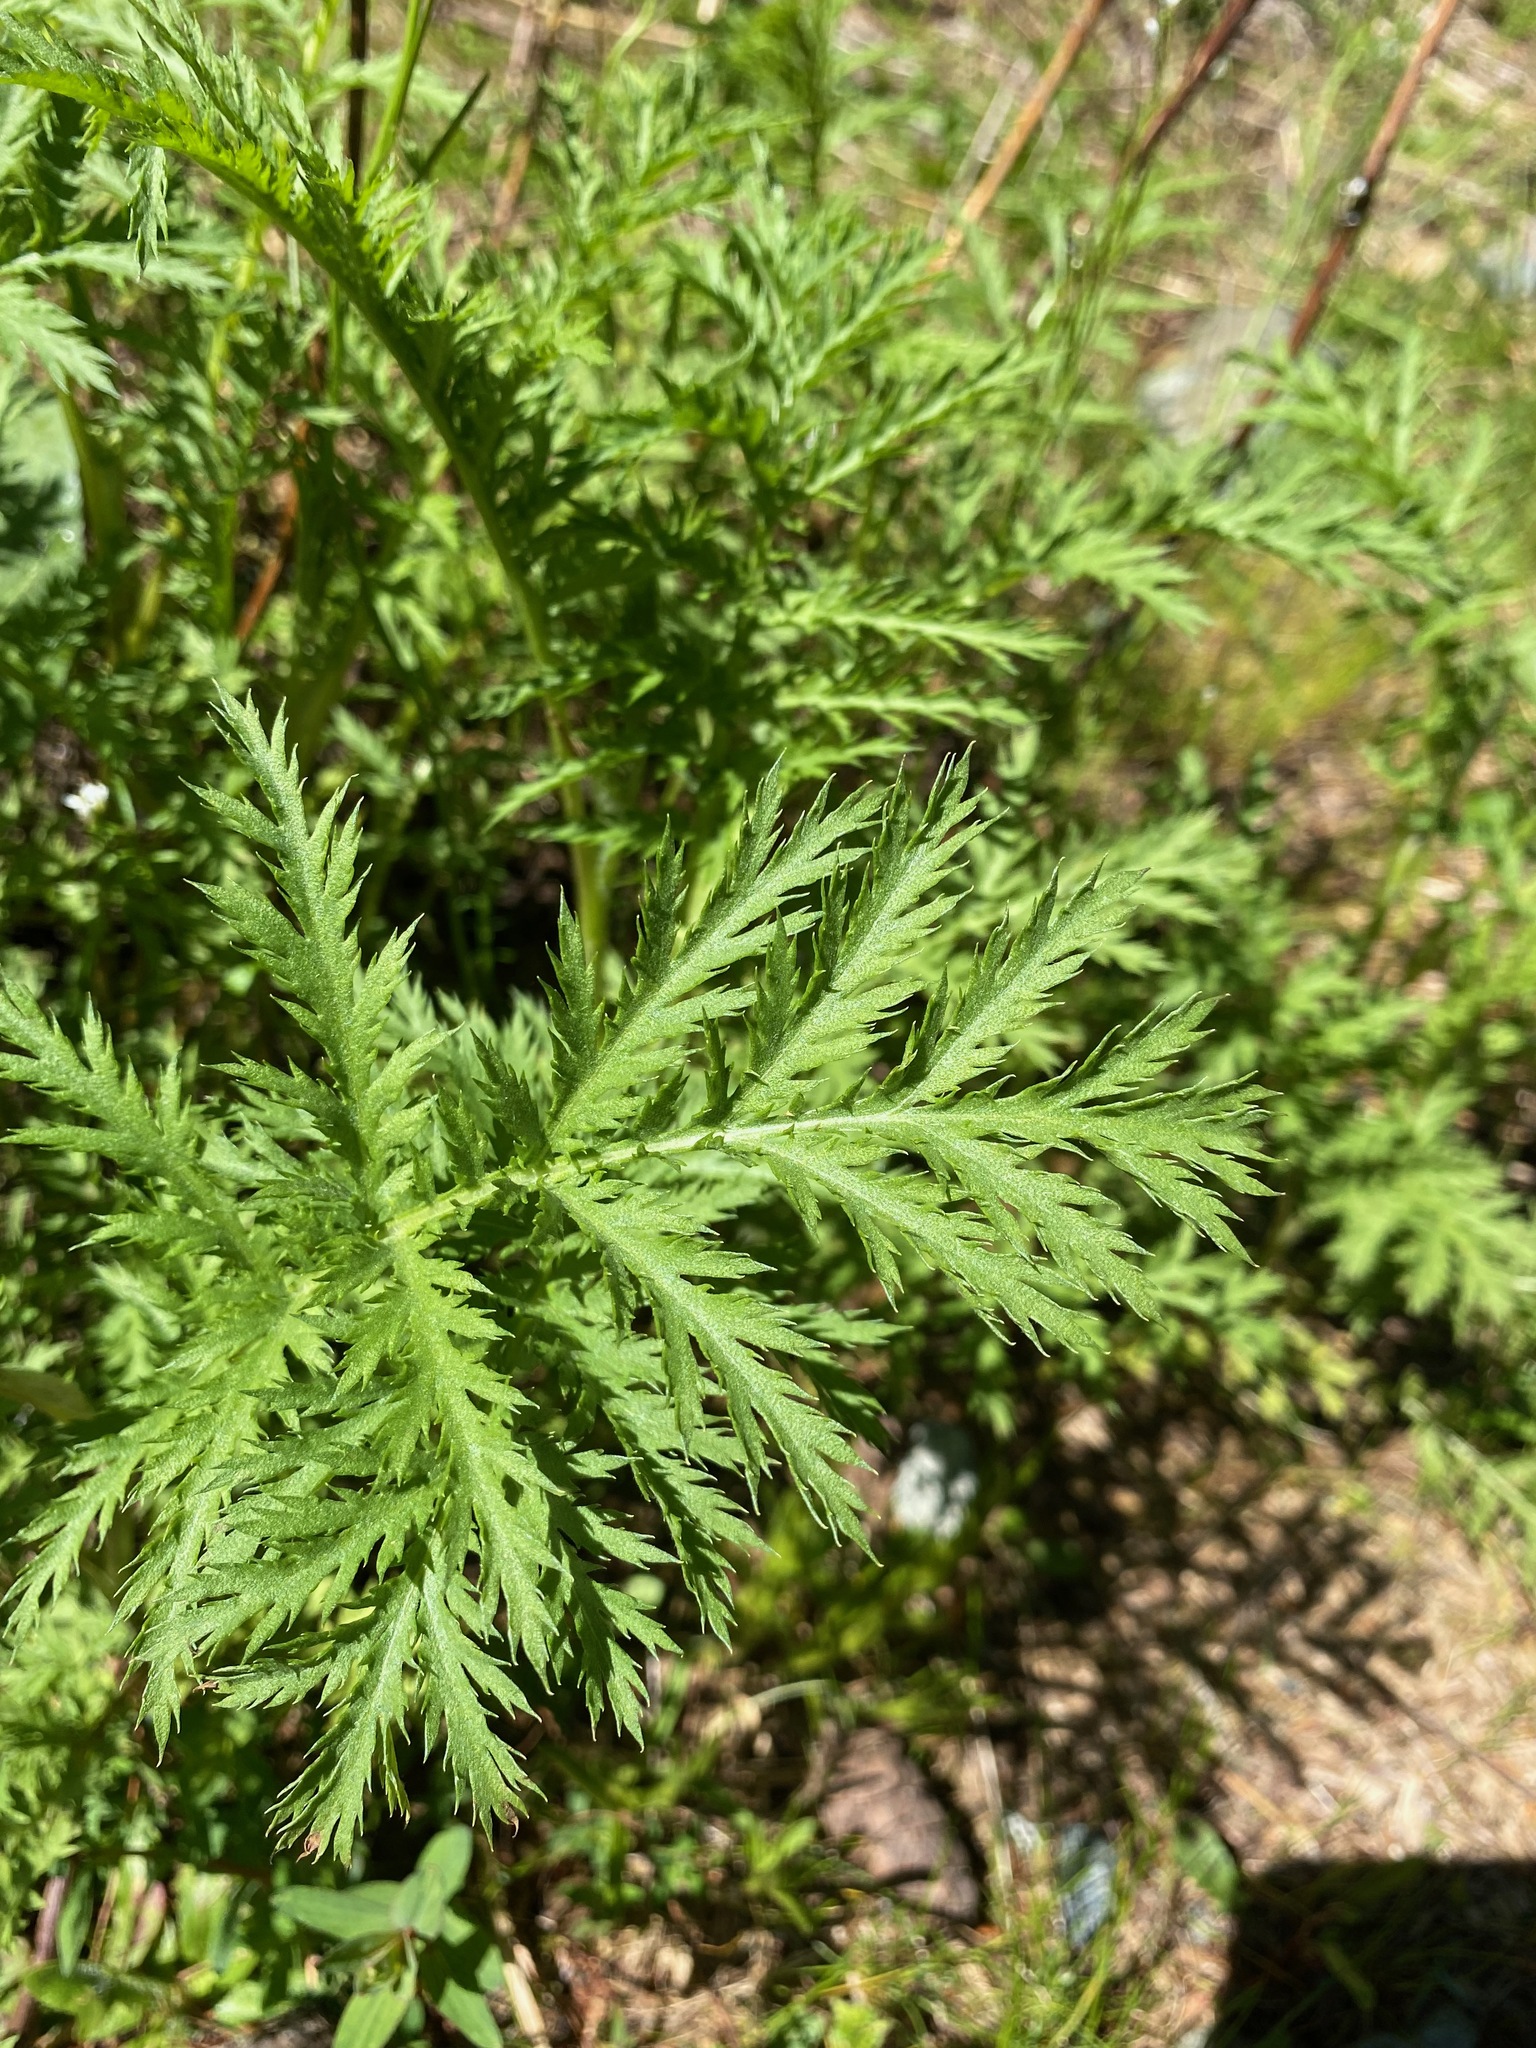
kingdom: Plantae
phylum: Tracheophyta
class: Magnoliopsida
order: Asterales
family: Asteraceae
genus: Tanacetum
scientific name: Tanacetum vulgare
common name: Common tansy
